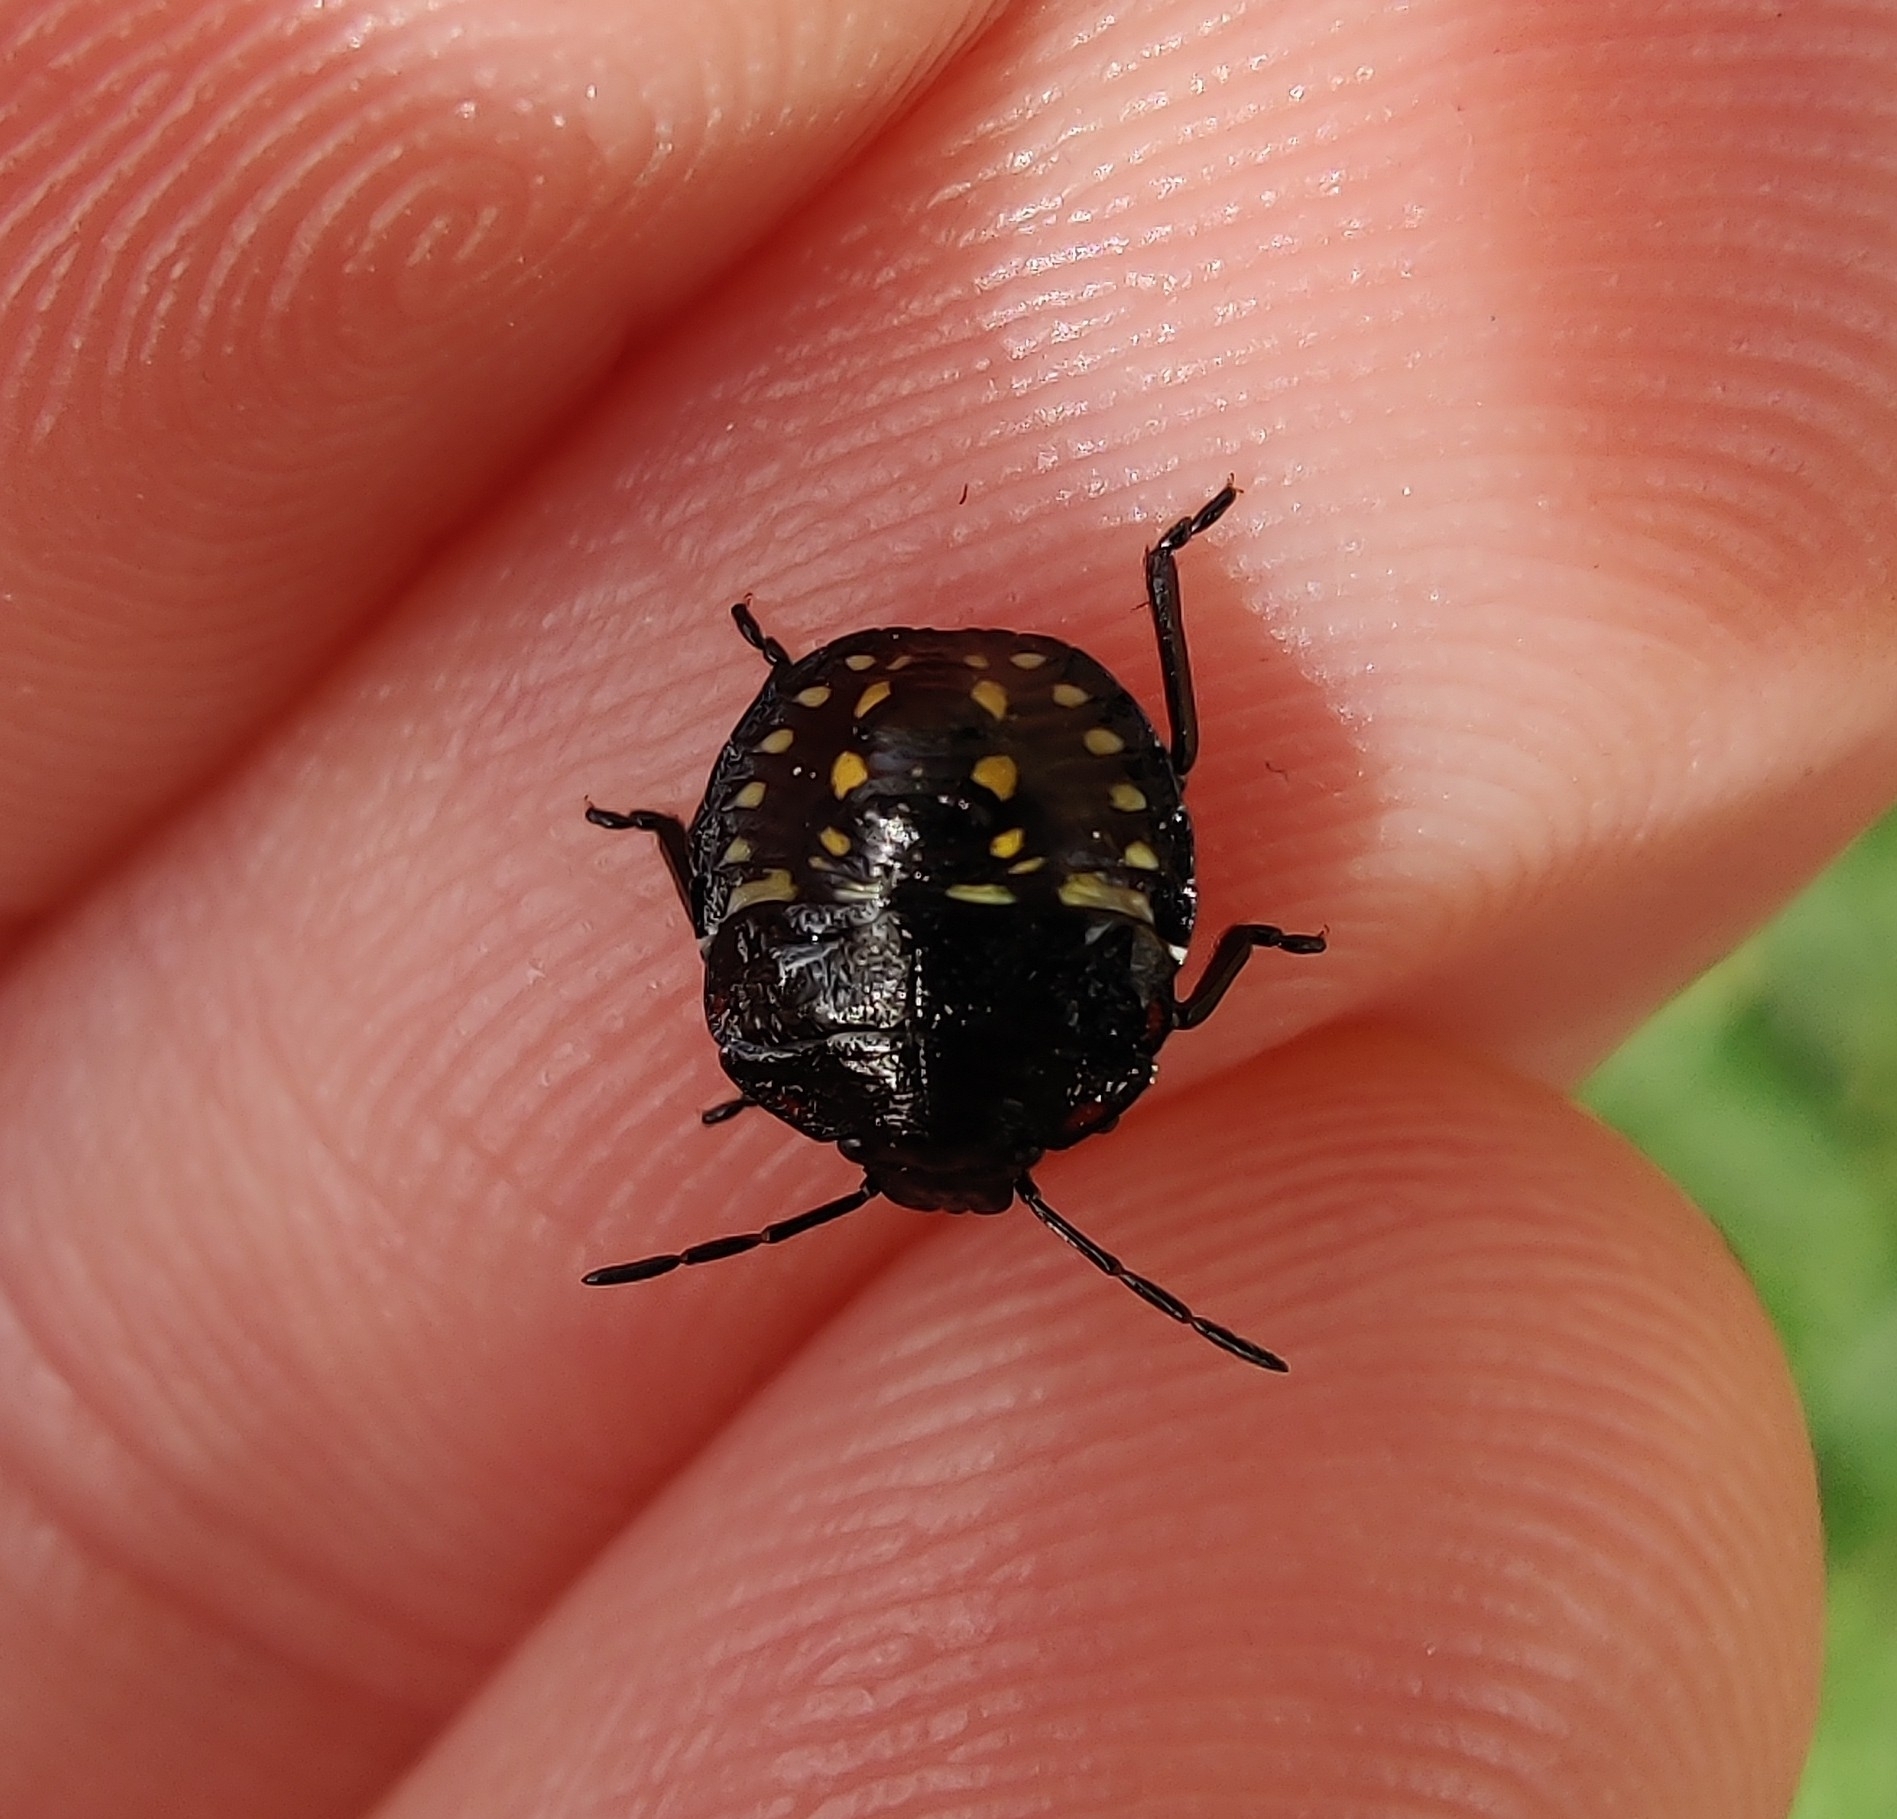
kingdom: Animalia
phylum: Arthropoda
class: Insecta
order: Hemiptera
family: Pentatomidae
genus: Nezara
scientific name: Nezara viridula
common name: Southern green stink bug
